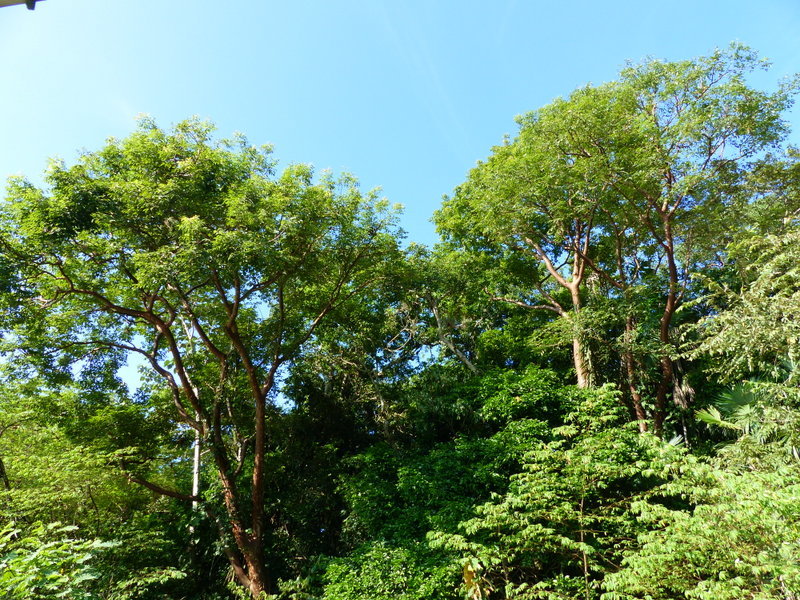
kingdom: Plantae
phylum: Tracheophyta
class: Magnoliopsida
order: Sapindales
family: Burseraceae
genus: Bursera
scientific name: Bursera simaruba
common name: Turpentine tree
